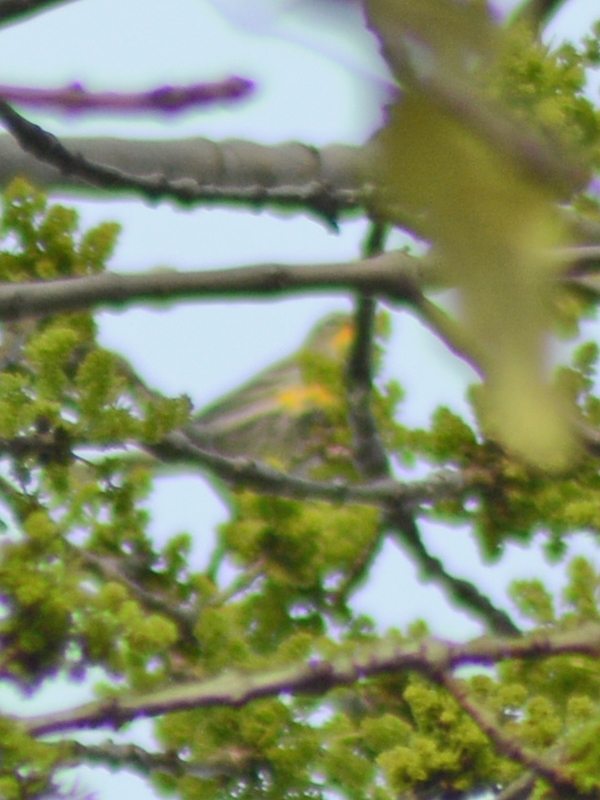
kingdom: Animalia
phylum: Chordata
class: Aves
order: Passeriformes
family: Parulidae
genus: Setophaga
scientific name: Setophaga coronata
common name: Myrtle warbler
